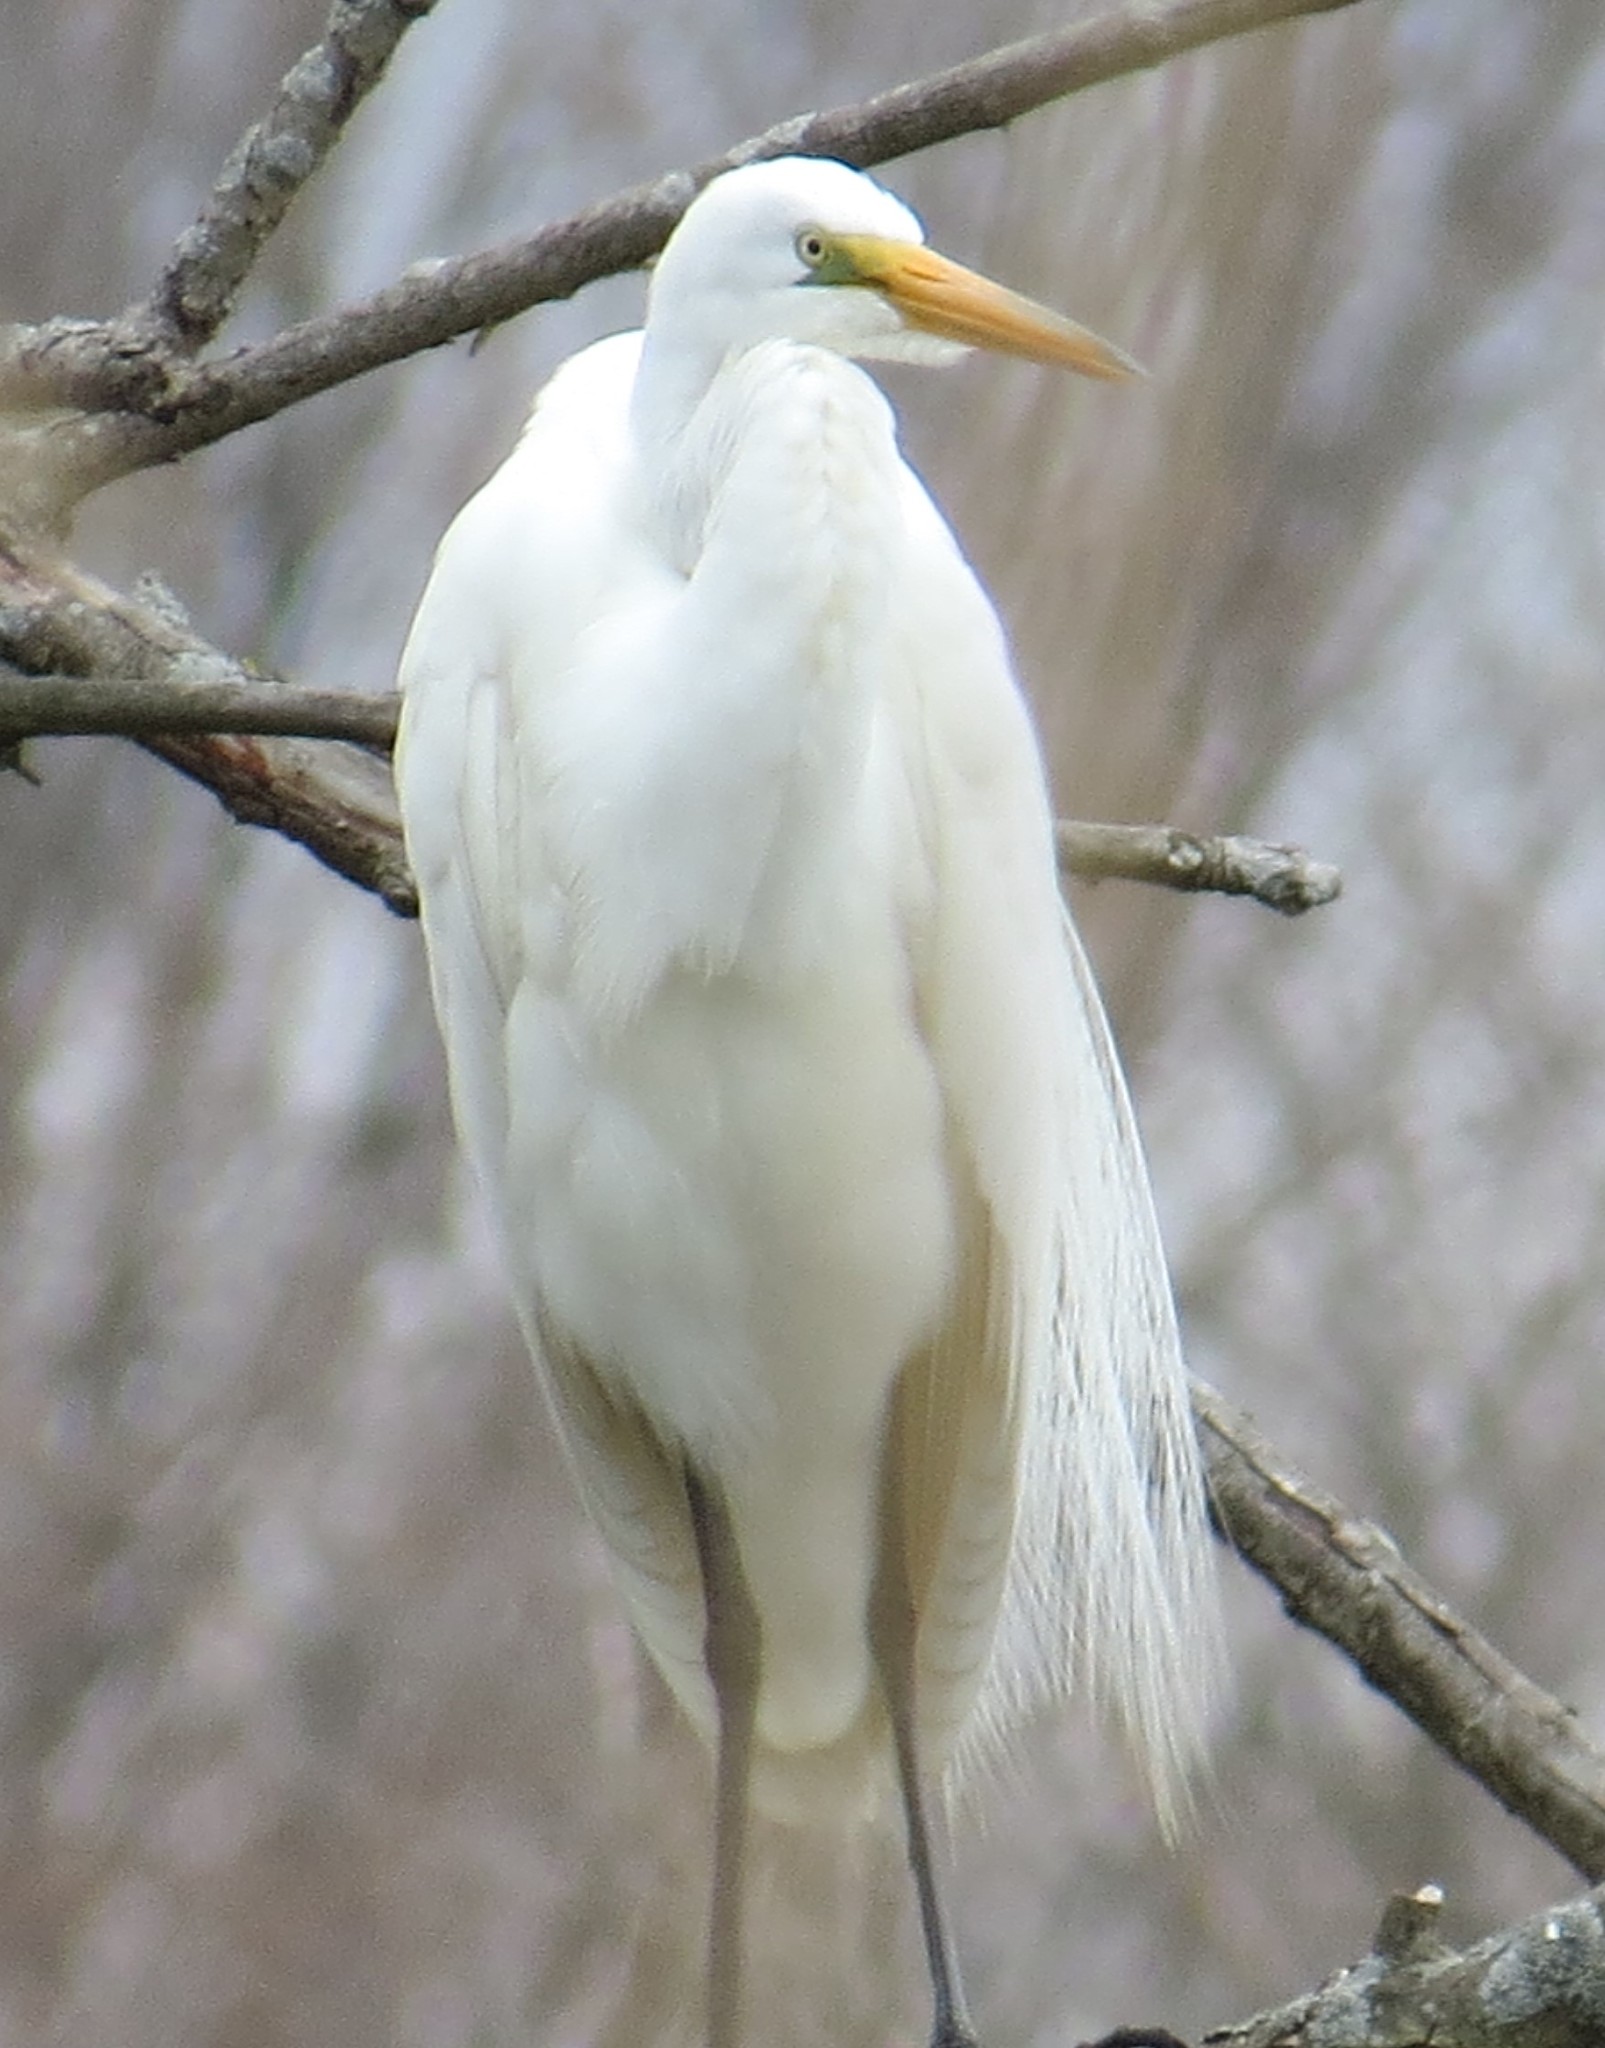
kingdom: Animalia
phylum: Chordata
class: Aves
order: Pelecaniformes
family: Ardeidae
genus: Ardea
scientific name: Ardea alba
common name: Great egret
